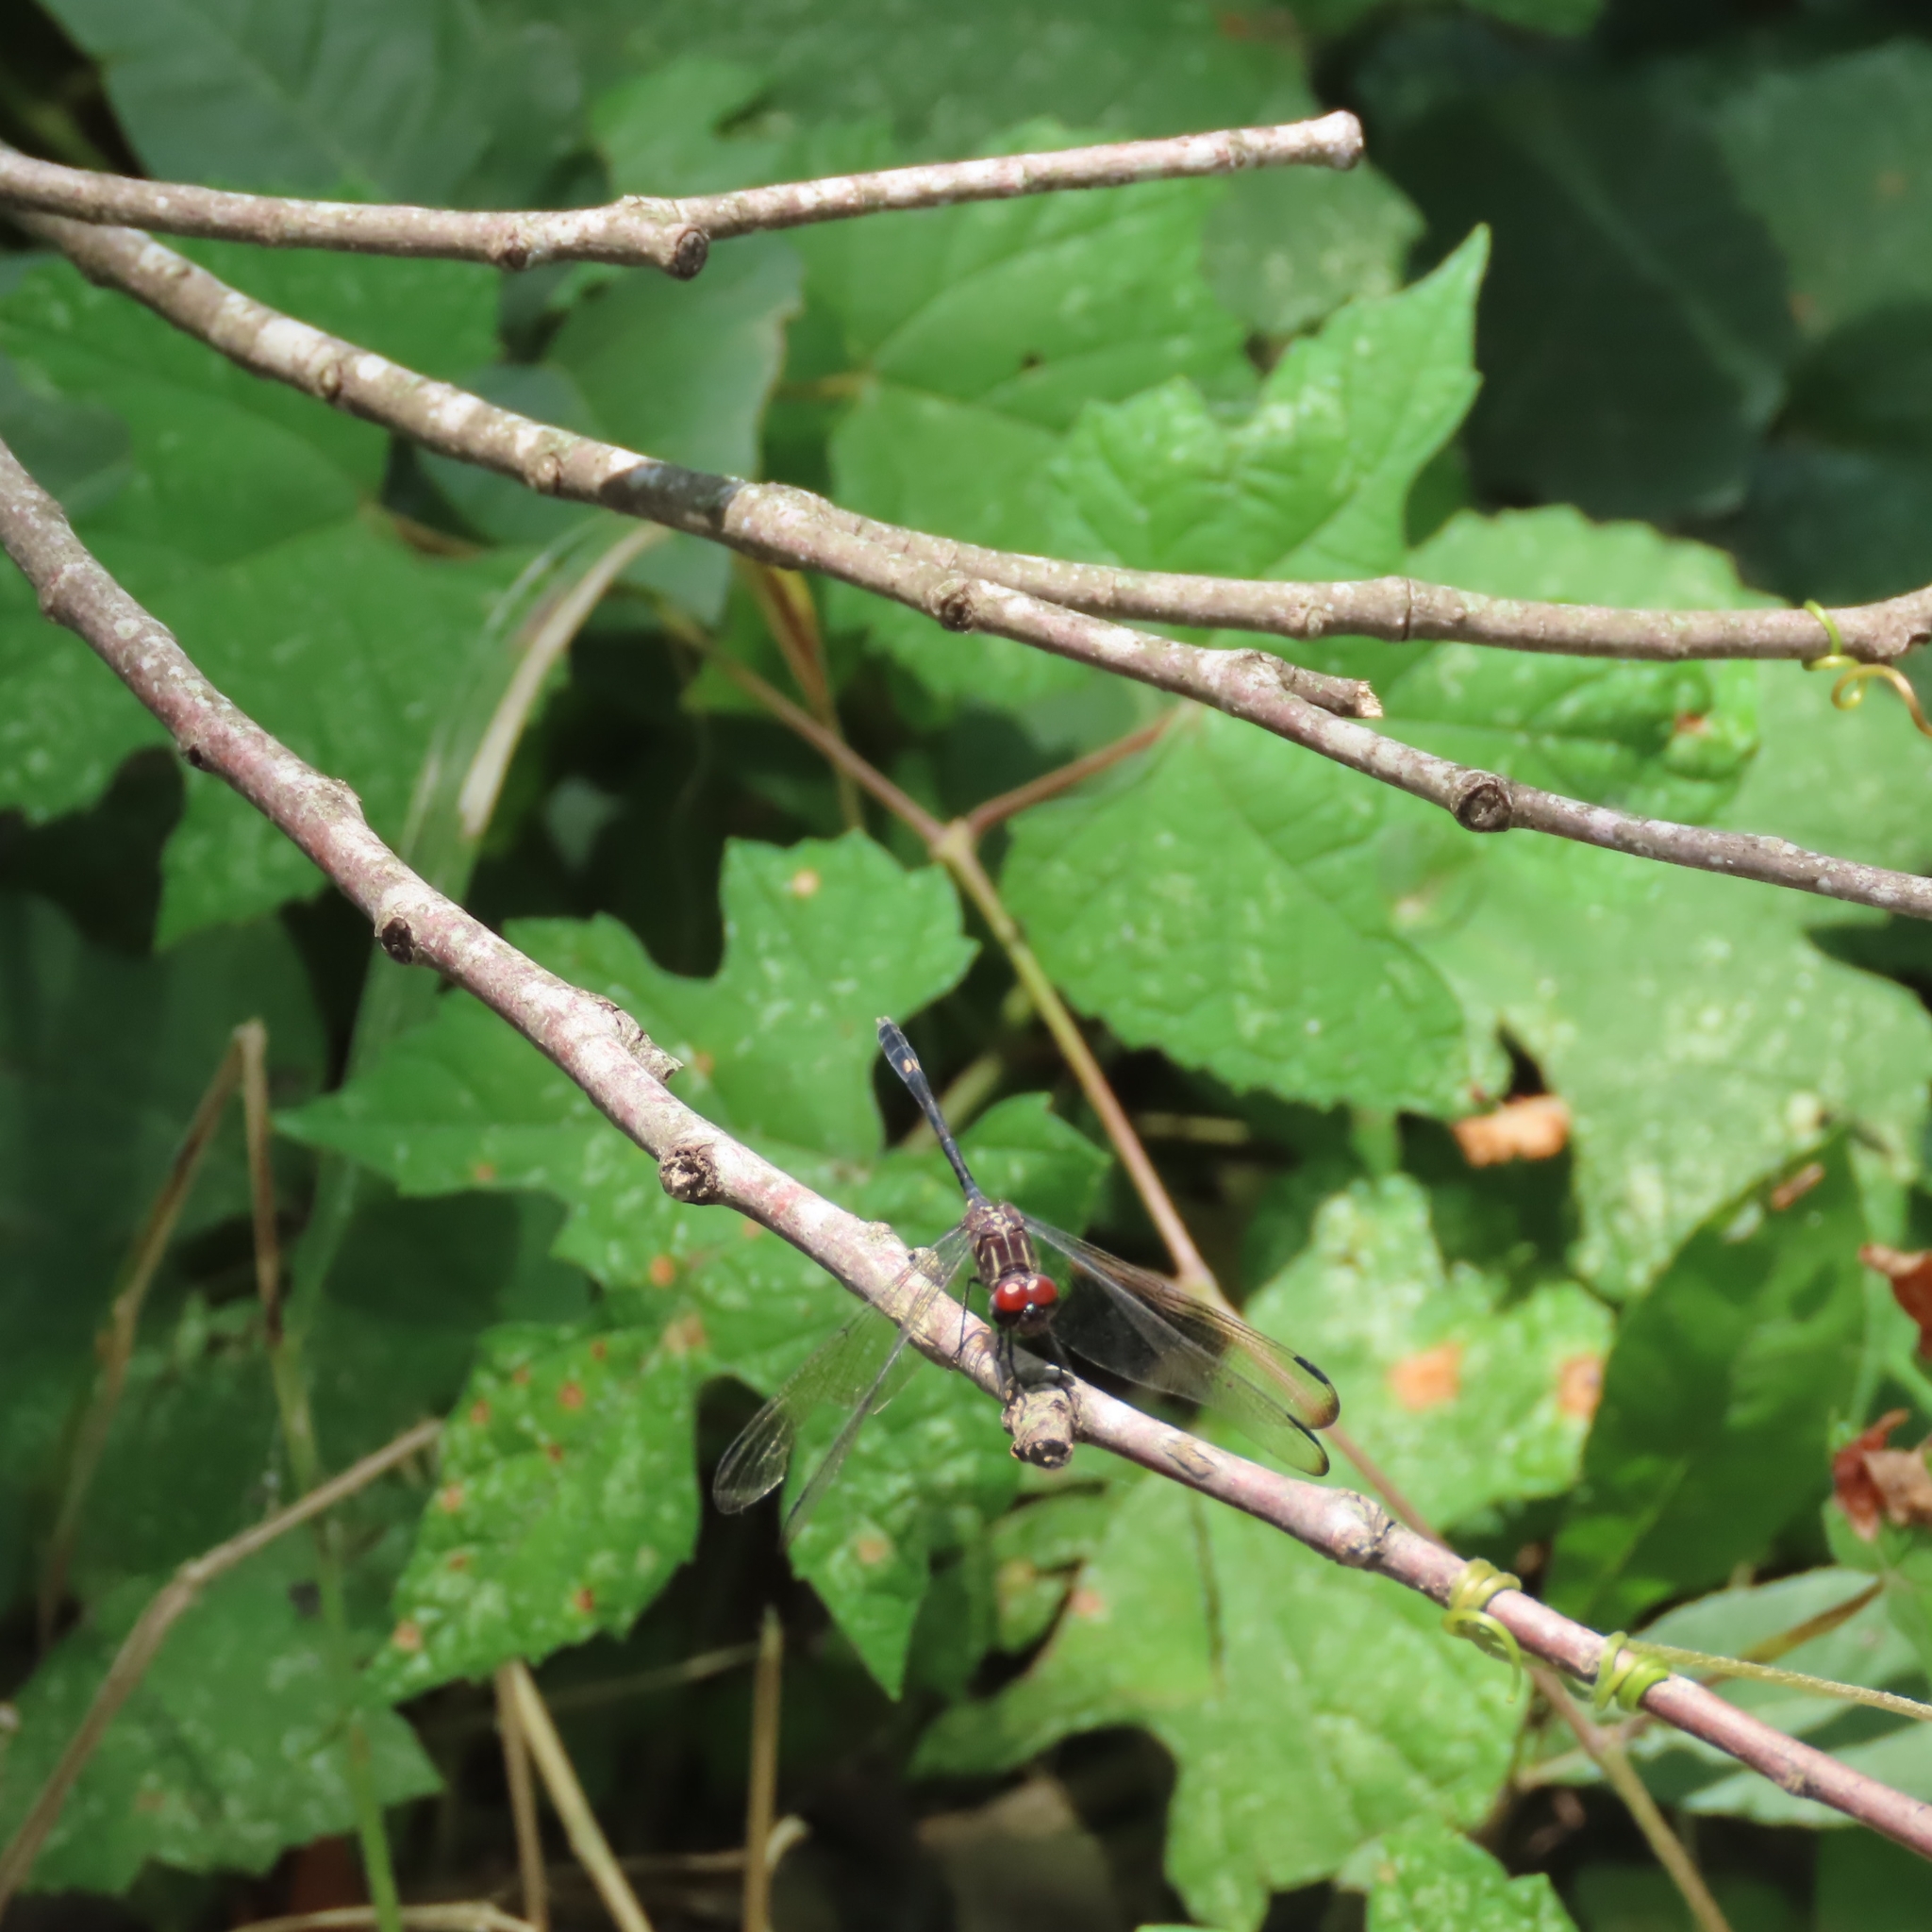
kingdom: Animalia
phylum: Arthropoda
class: Insecta
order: Odonata
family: Libellulidae
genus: Dythemis
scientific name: Dythemis velox
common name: Swift setwing
